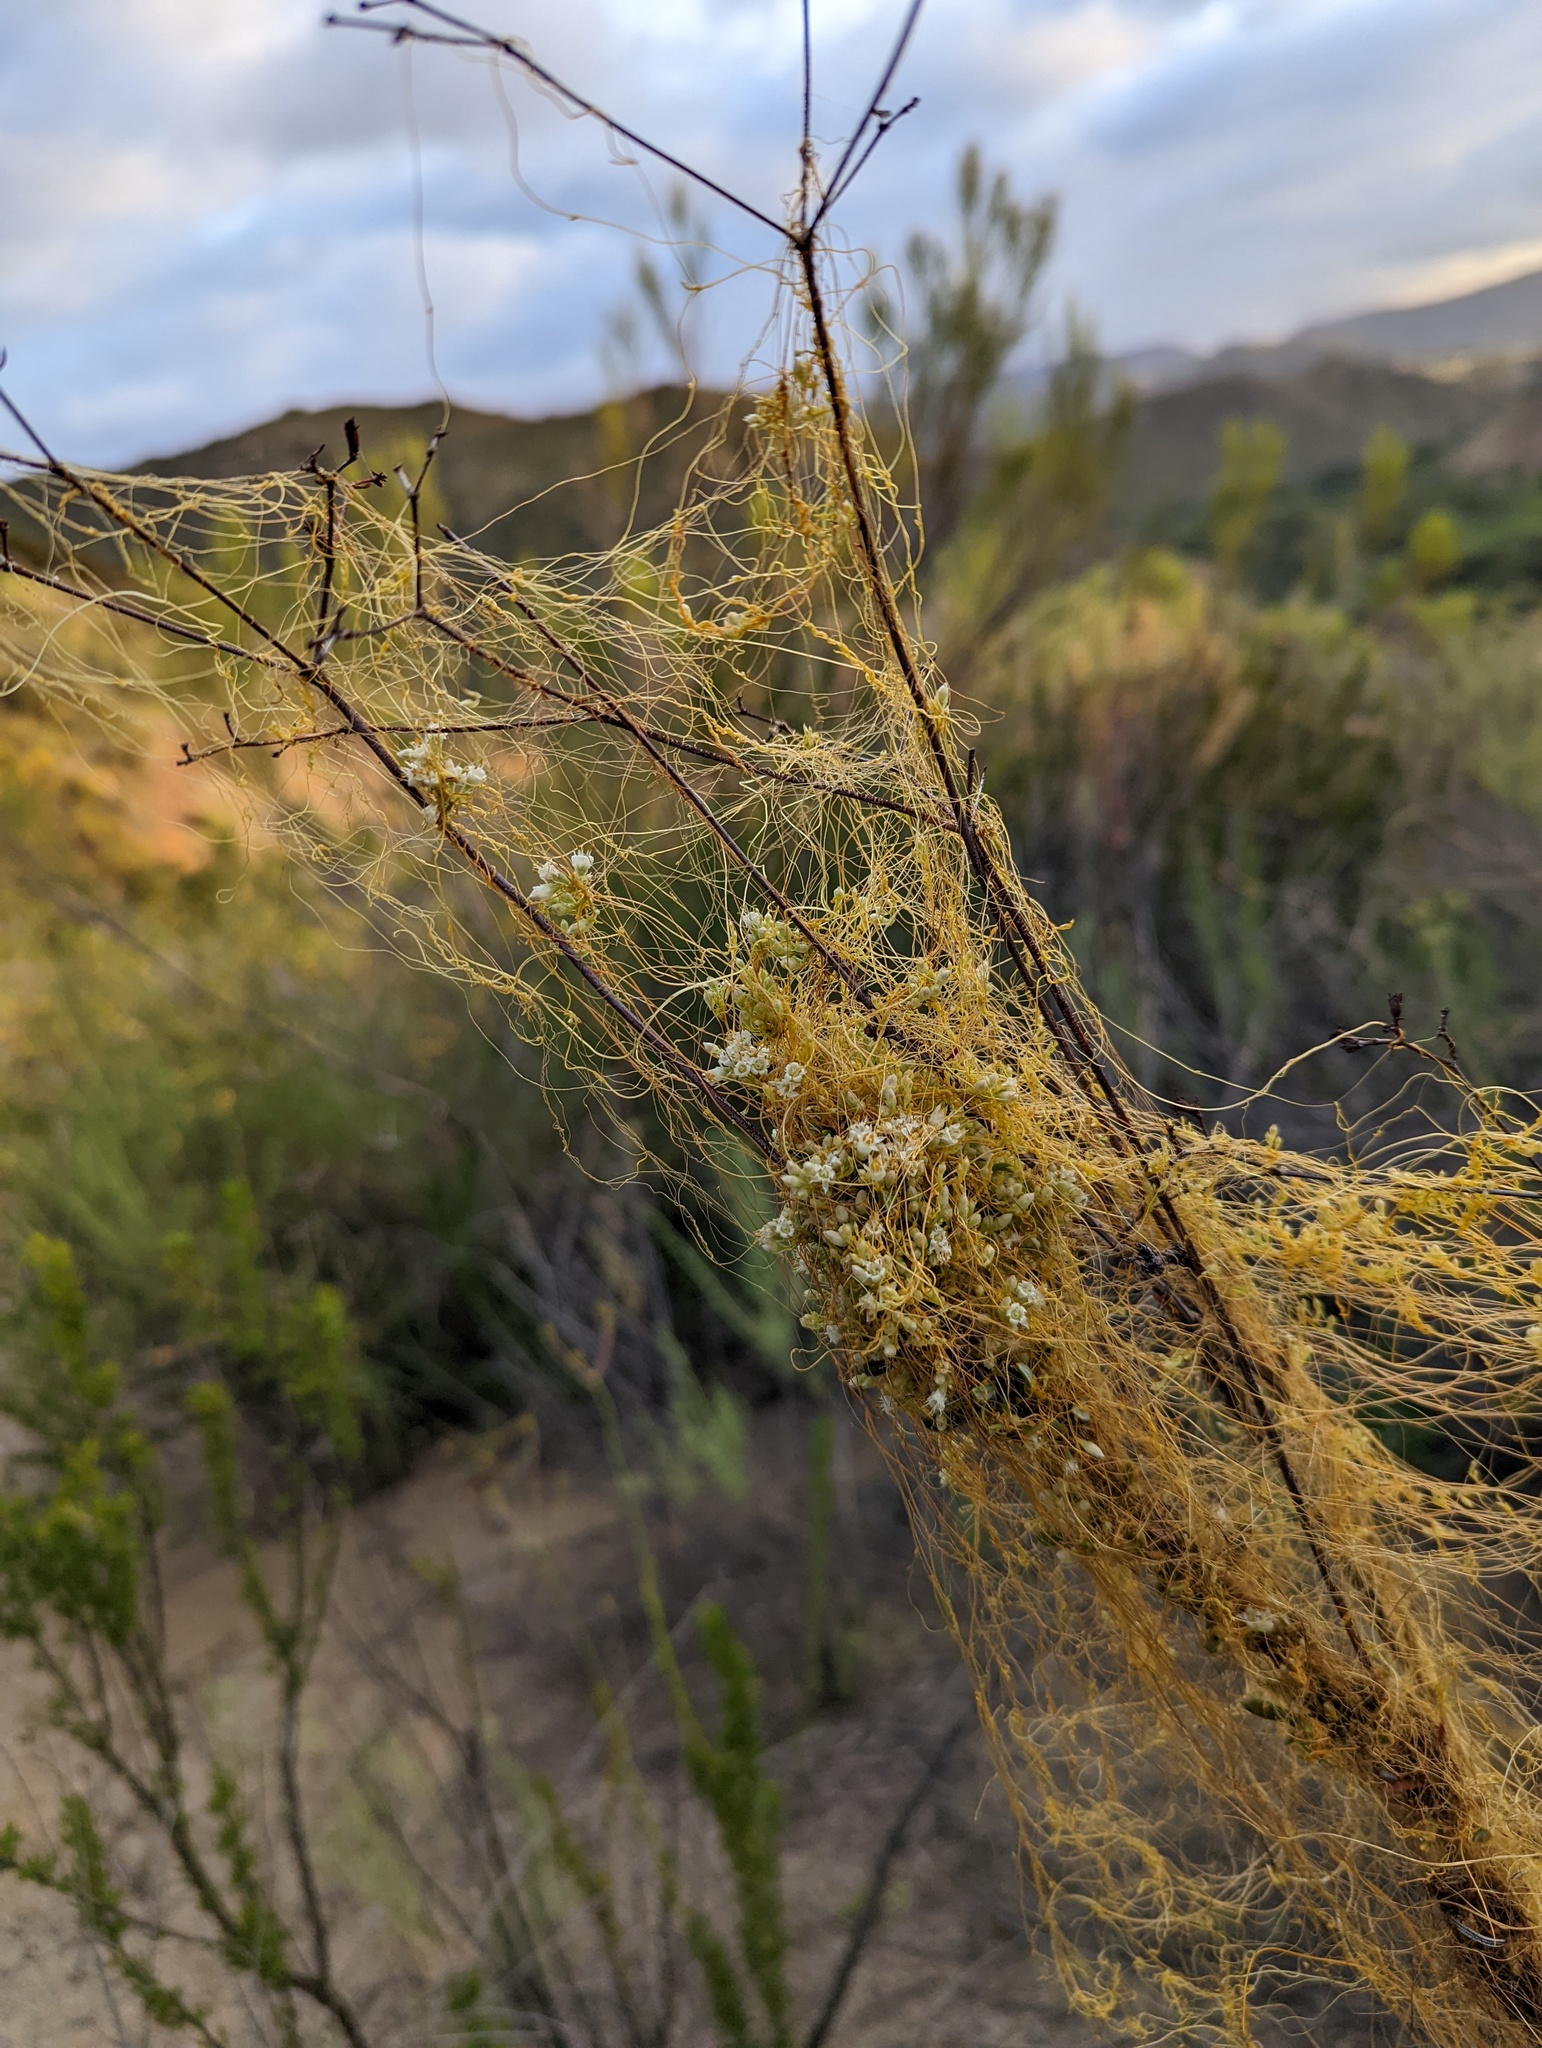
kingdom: Plantae
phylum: Tracheophyta
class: Magnoliopsida
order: Solanales
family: Convolvulaceae
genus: Cuscuta
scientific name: Cuscuta californica
